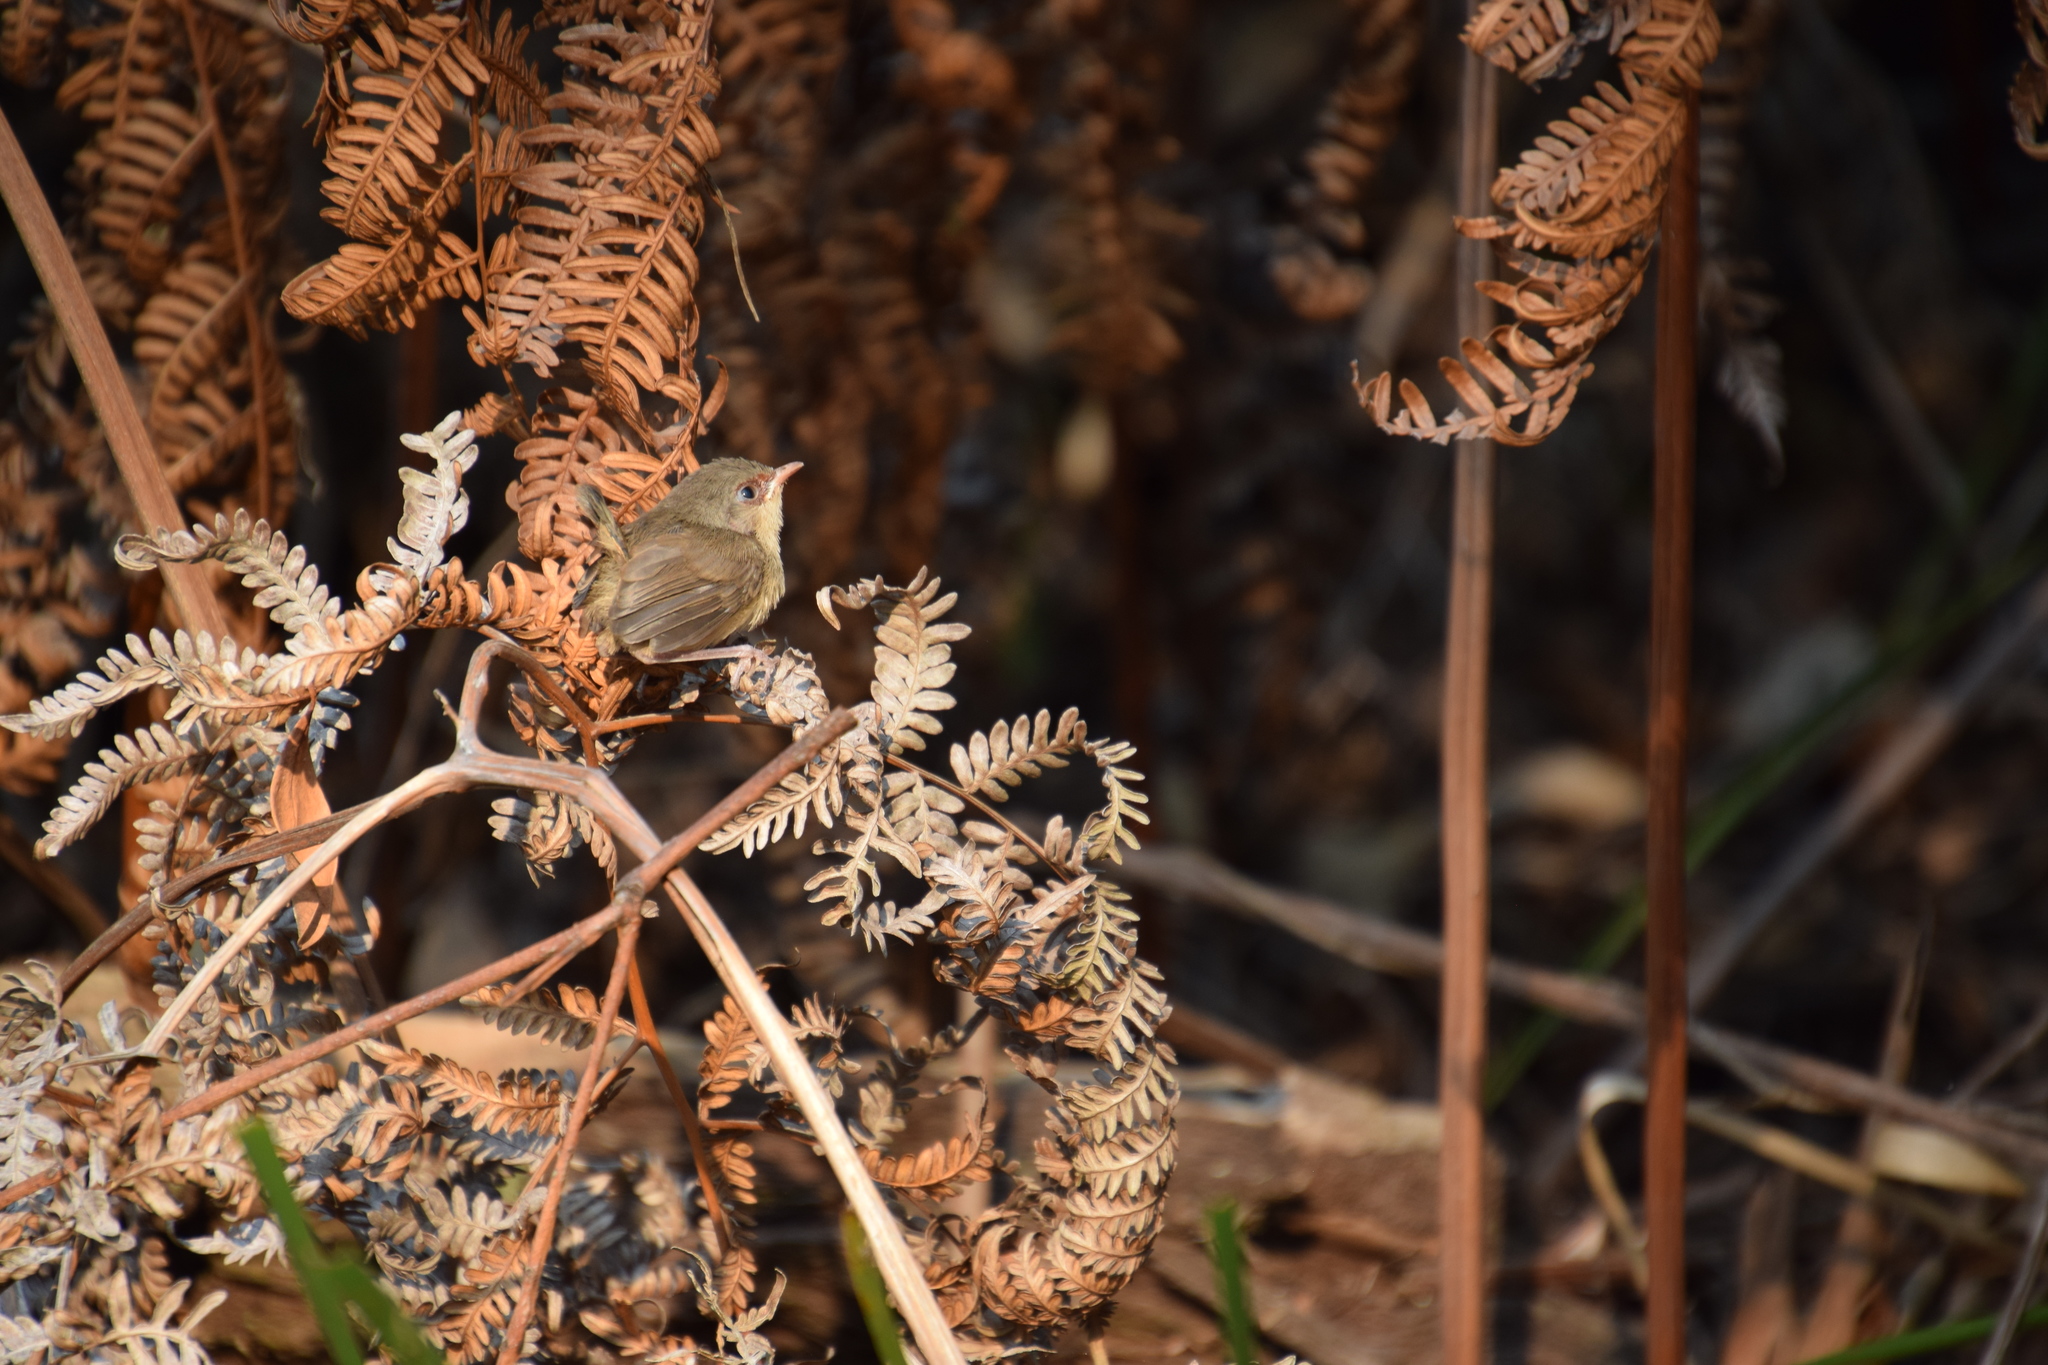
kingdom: Animalia
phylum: Chordata
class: Aves
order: Passeriformes
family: Maluridae
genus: Malurus
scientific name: Malurus lamberti
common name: Variegated fairywren
